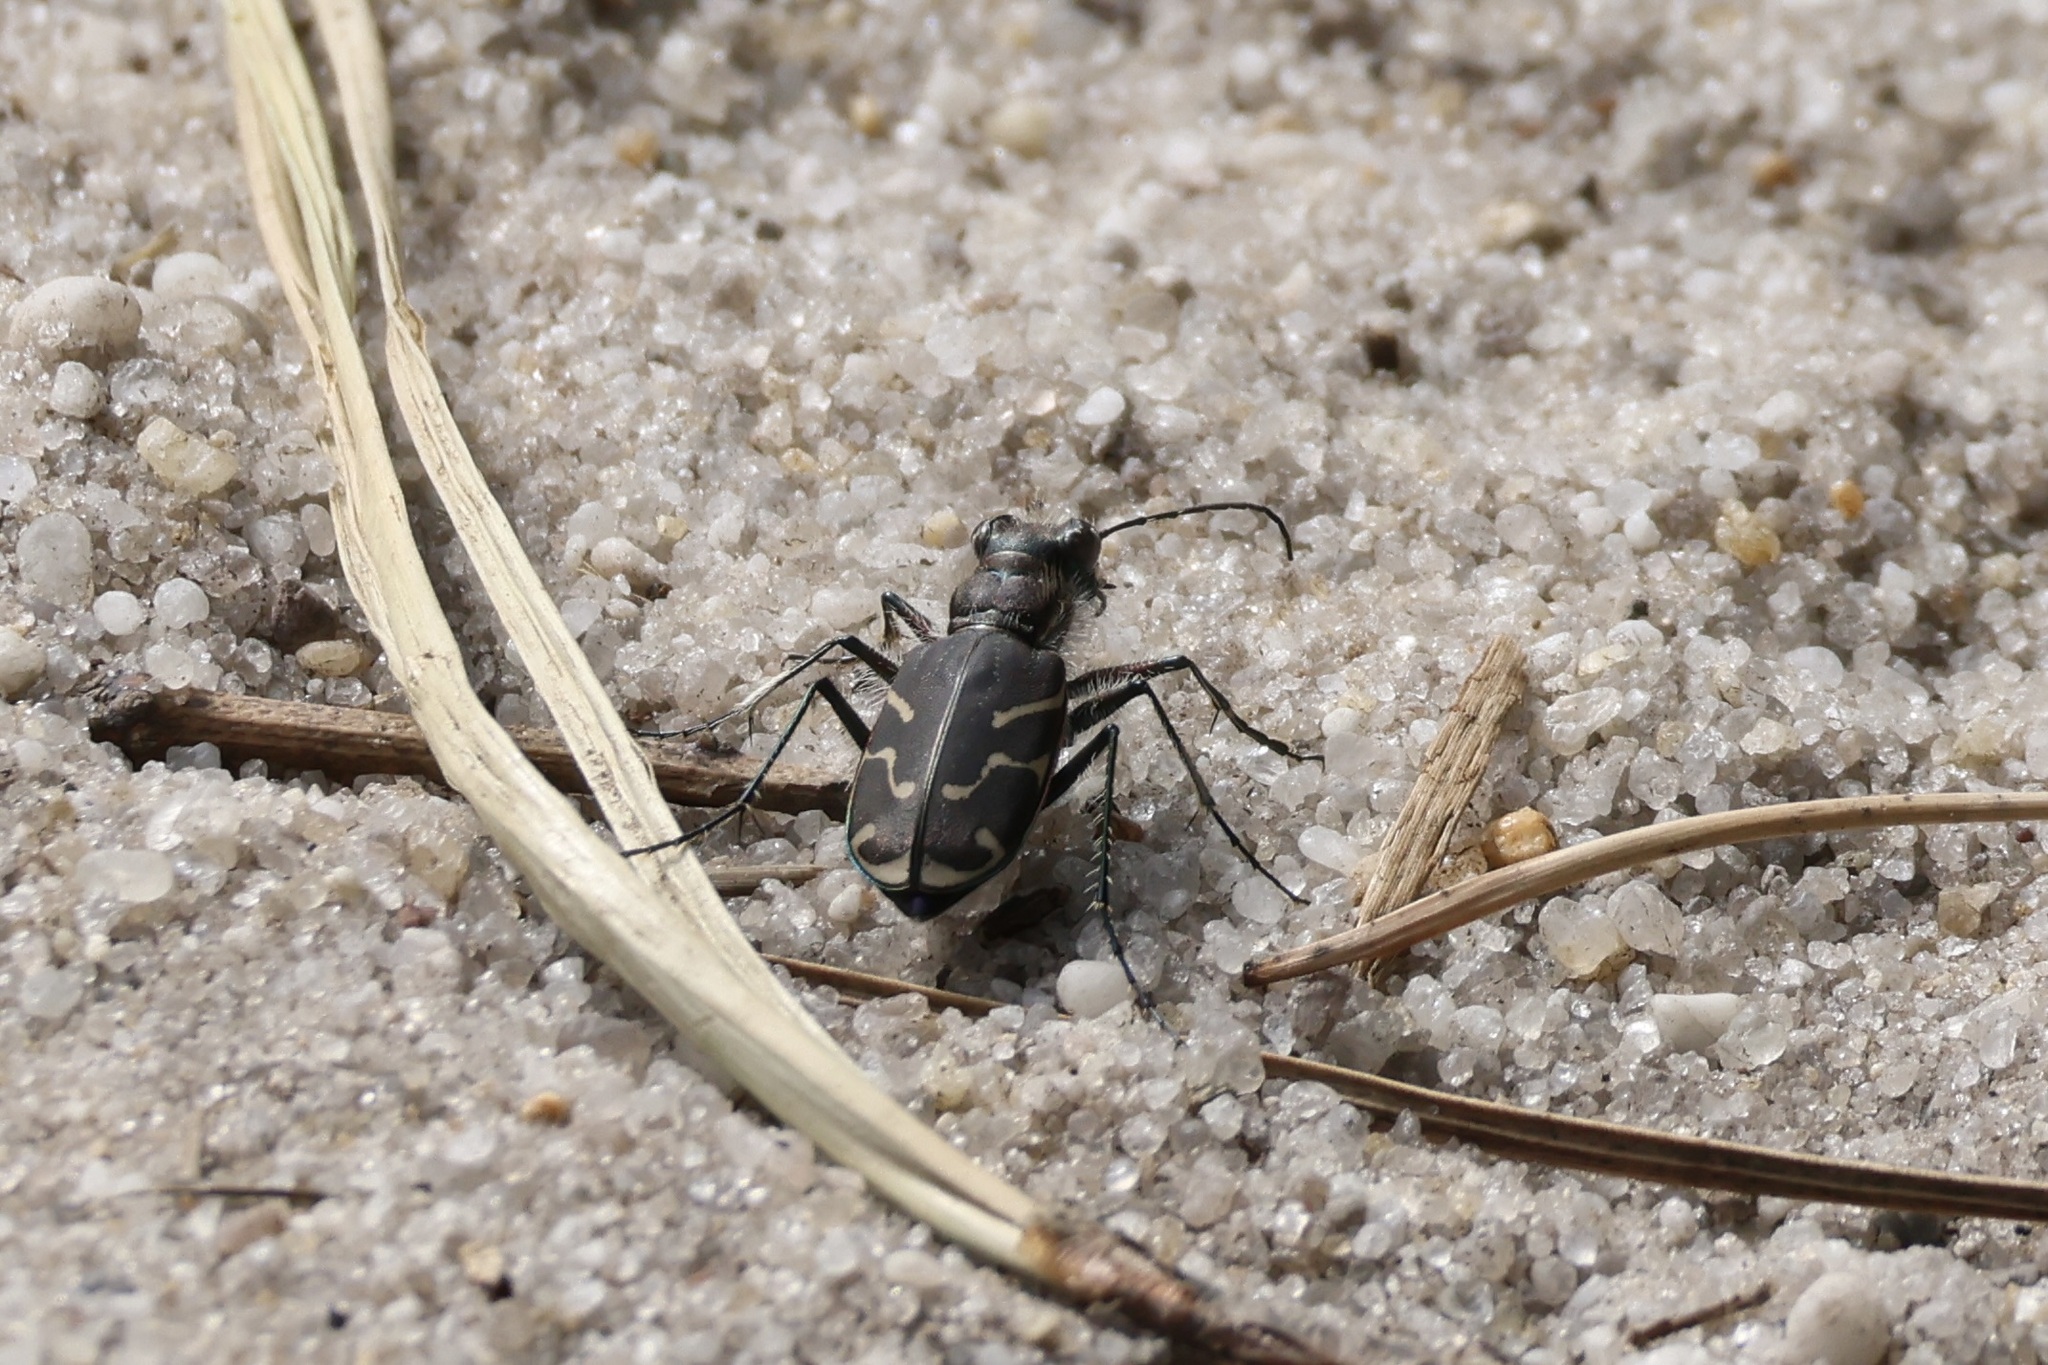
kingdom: Animalia
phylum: Arthropoda
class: Insecta
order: Coleoptera
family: Carabidae
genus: Cicindela
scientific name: Cicindela tranquebarica
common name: Oblique-lined tiger beetle
